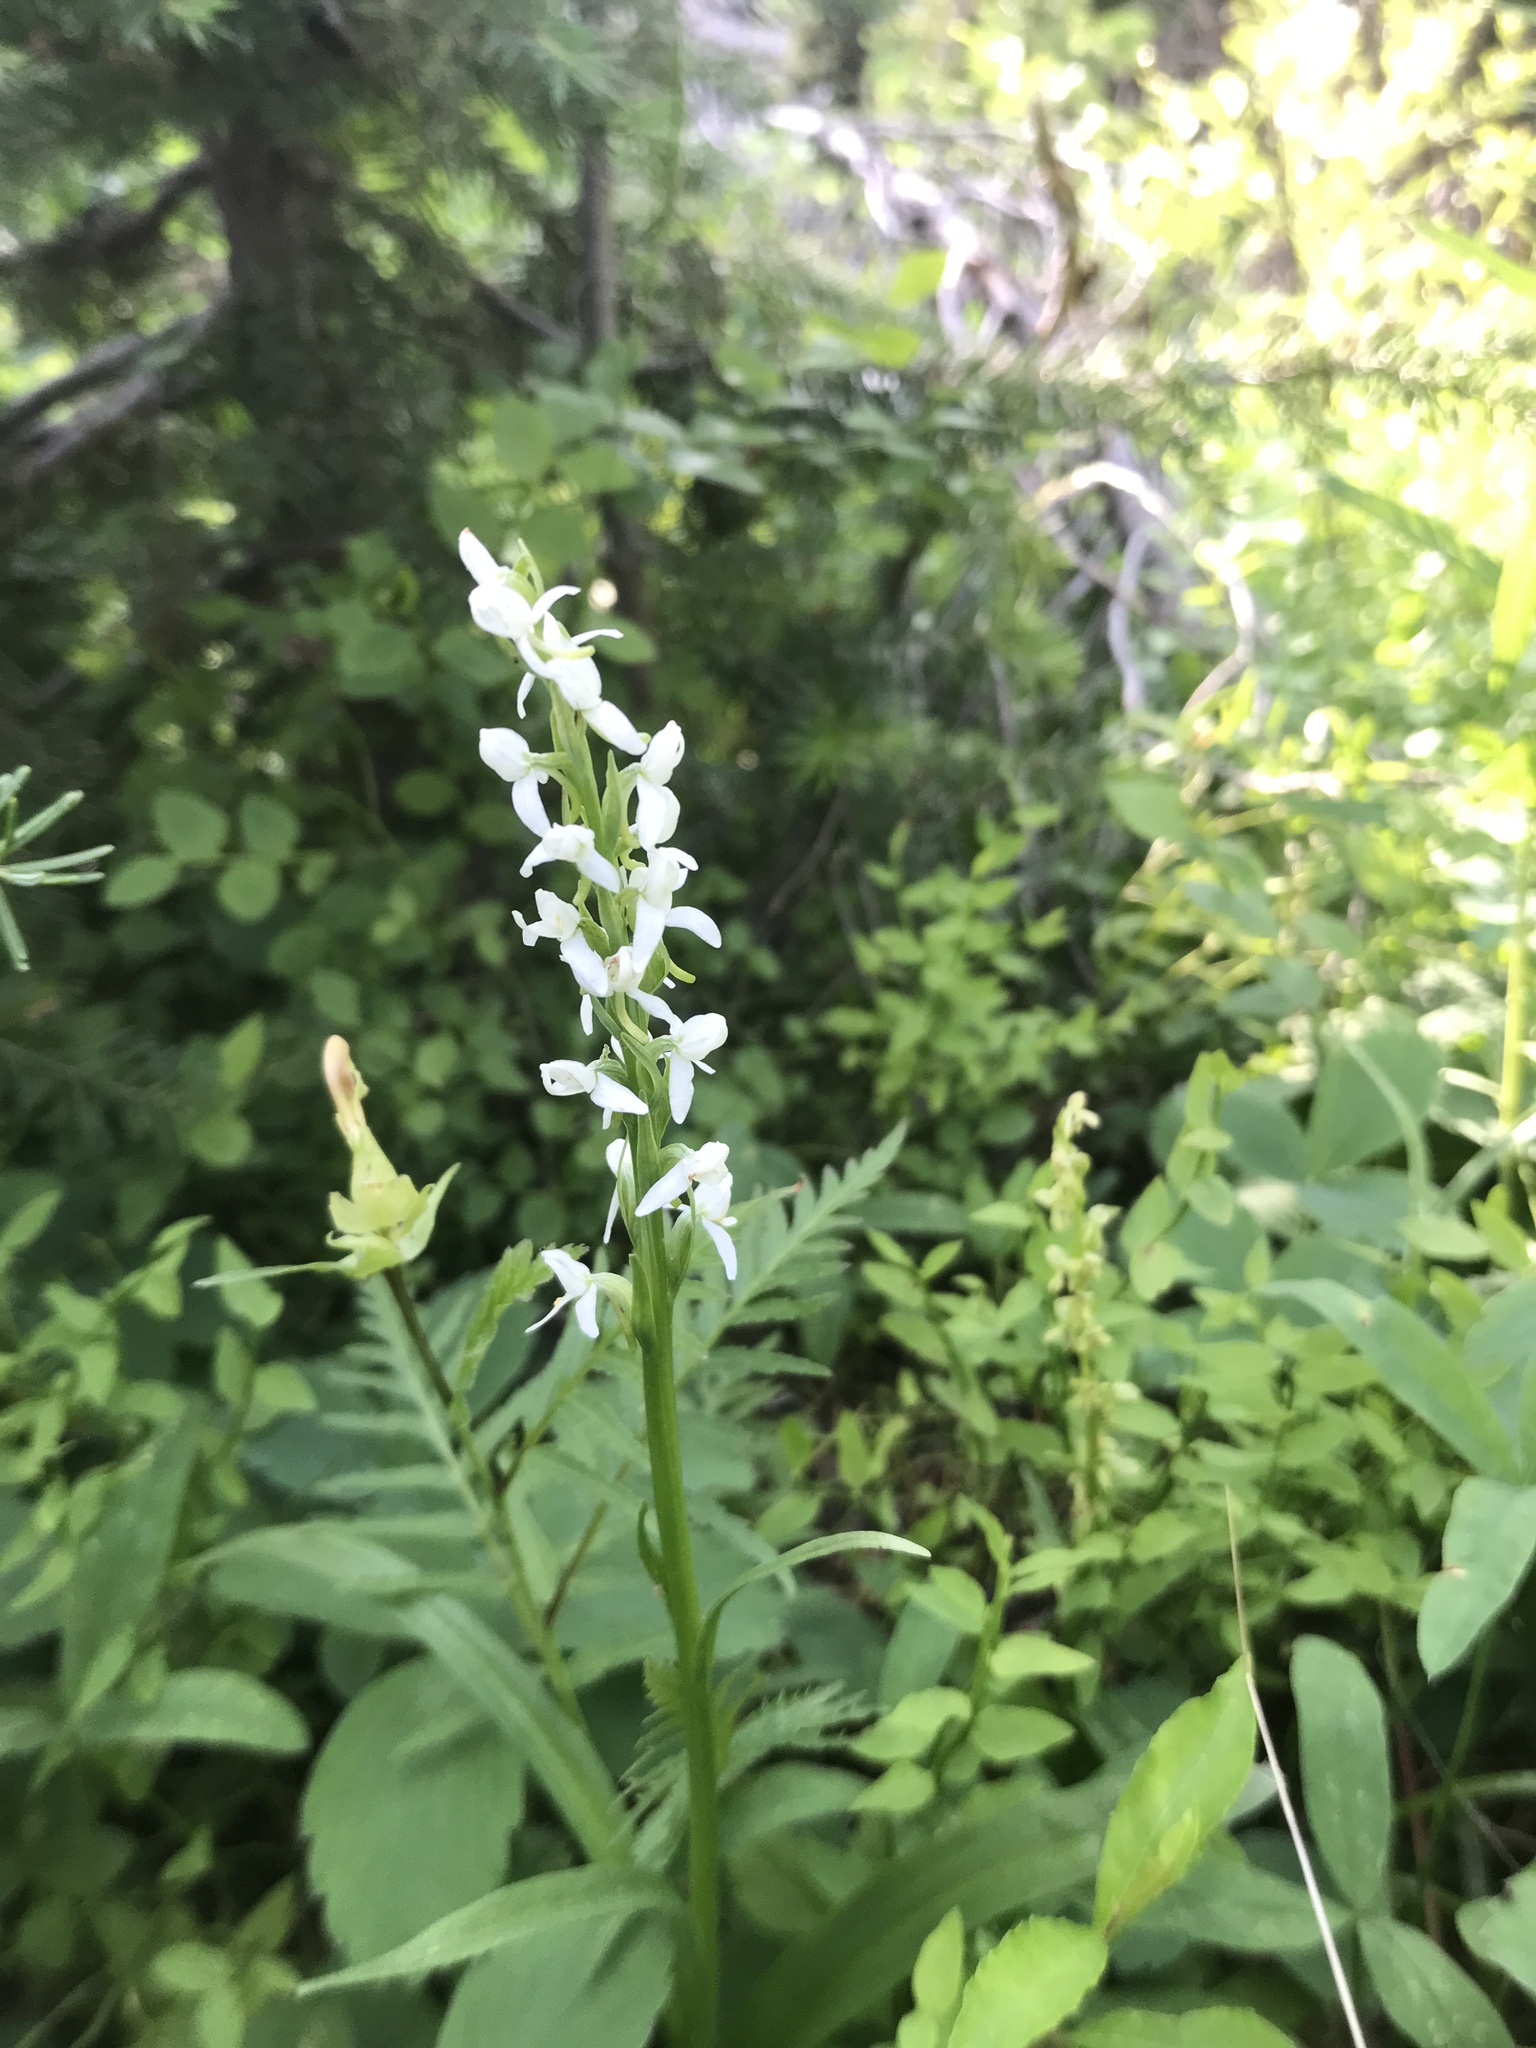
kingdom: Plantae
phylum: Tracheophyta
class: Liliopsida
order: Asparagales
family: Orchidaceae
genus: Platanthera
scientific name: Platanthera dilatata
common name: Bog candles
